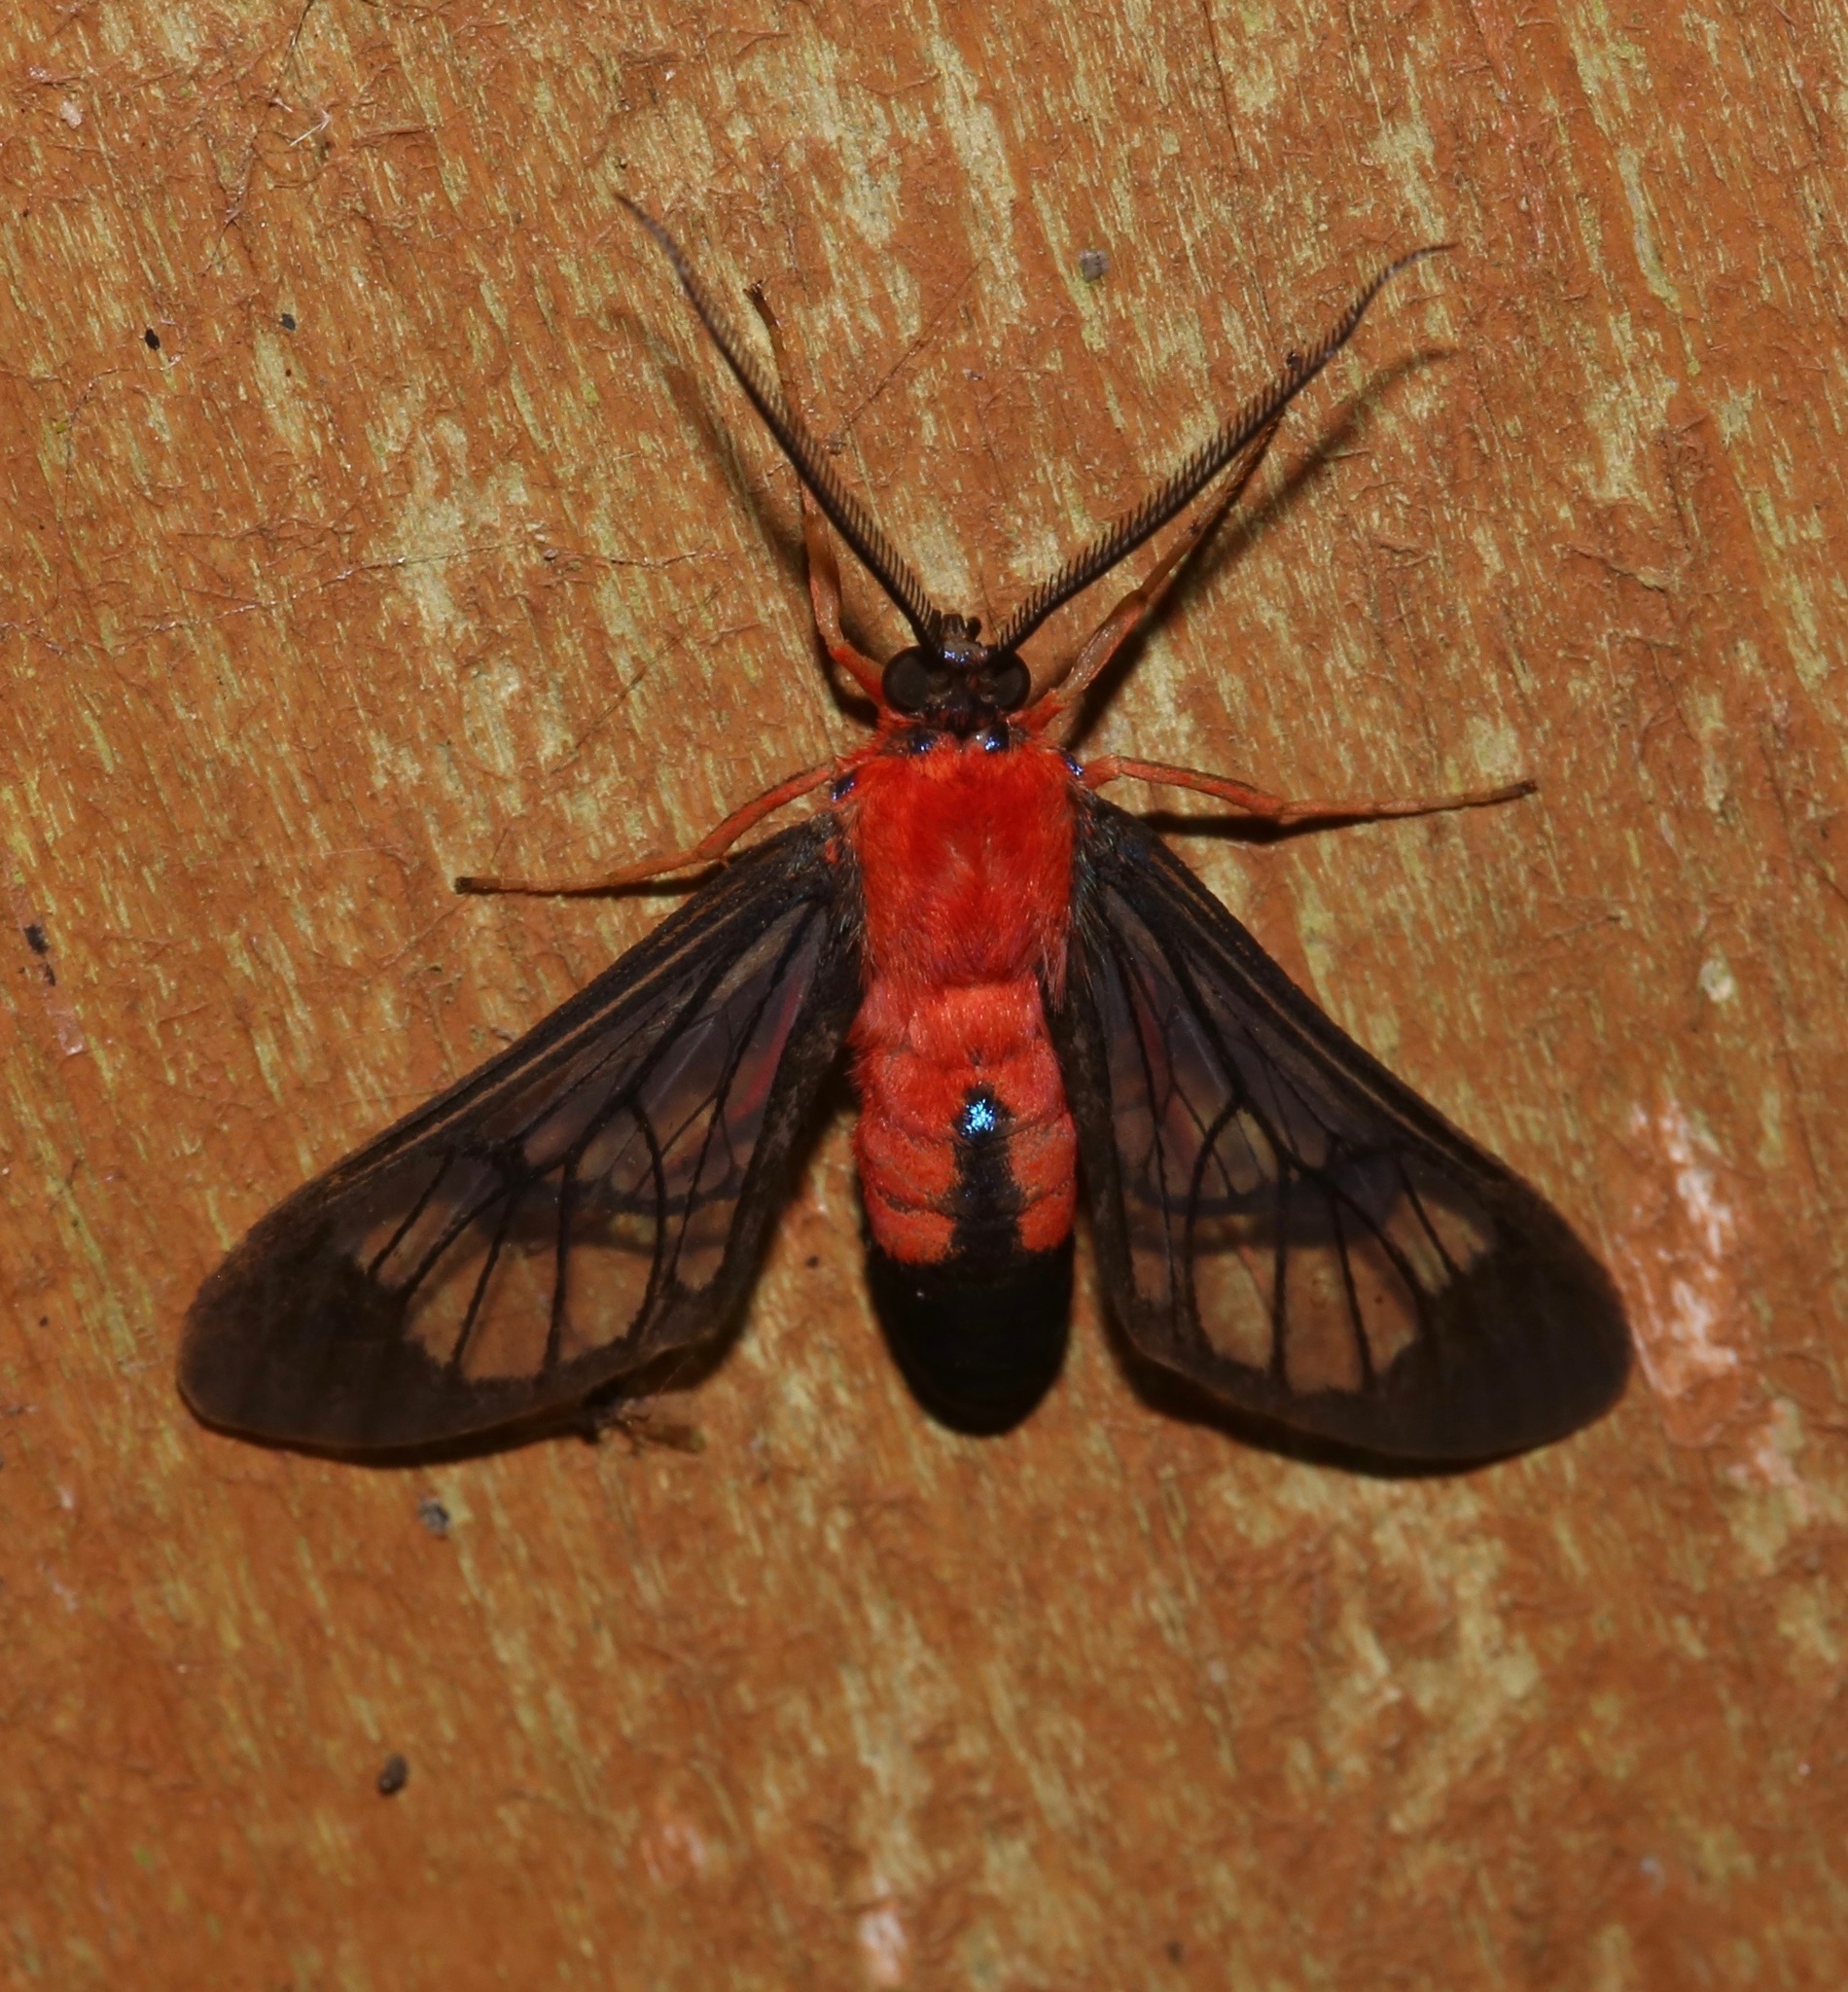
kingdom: Animalia
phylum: Arthropoda
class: Insecta
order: Lepidoptera
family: Erebidae
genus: Cosmosoma
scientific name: Cosmosoma myrodora
